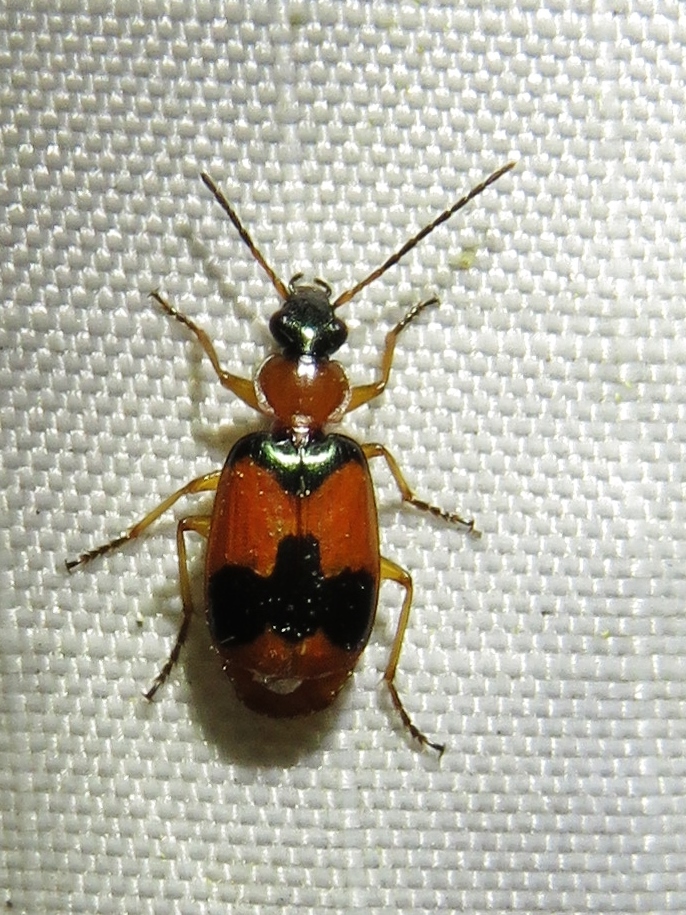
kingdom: Animalia
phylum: Arthropoda
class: Insecta
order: Coleoptera
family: Carabidae
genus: Lebia
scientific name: Lebia pulchella
